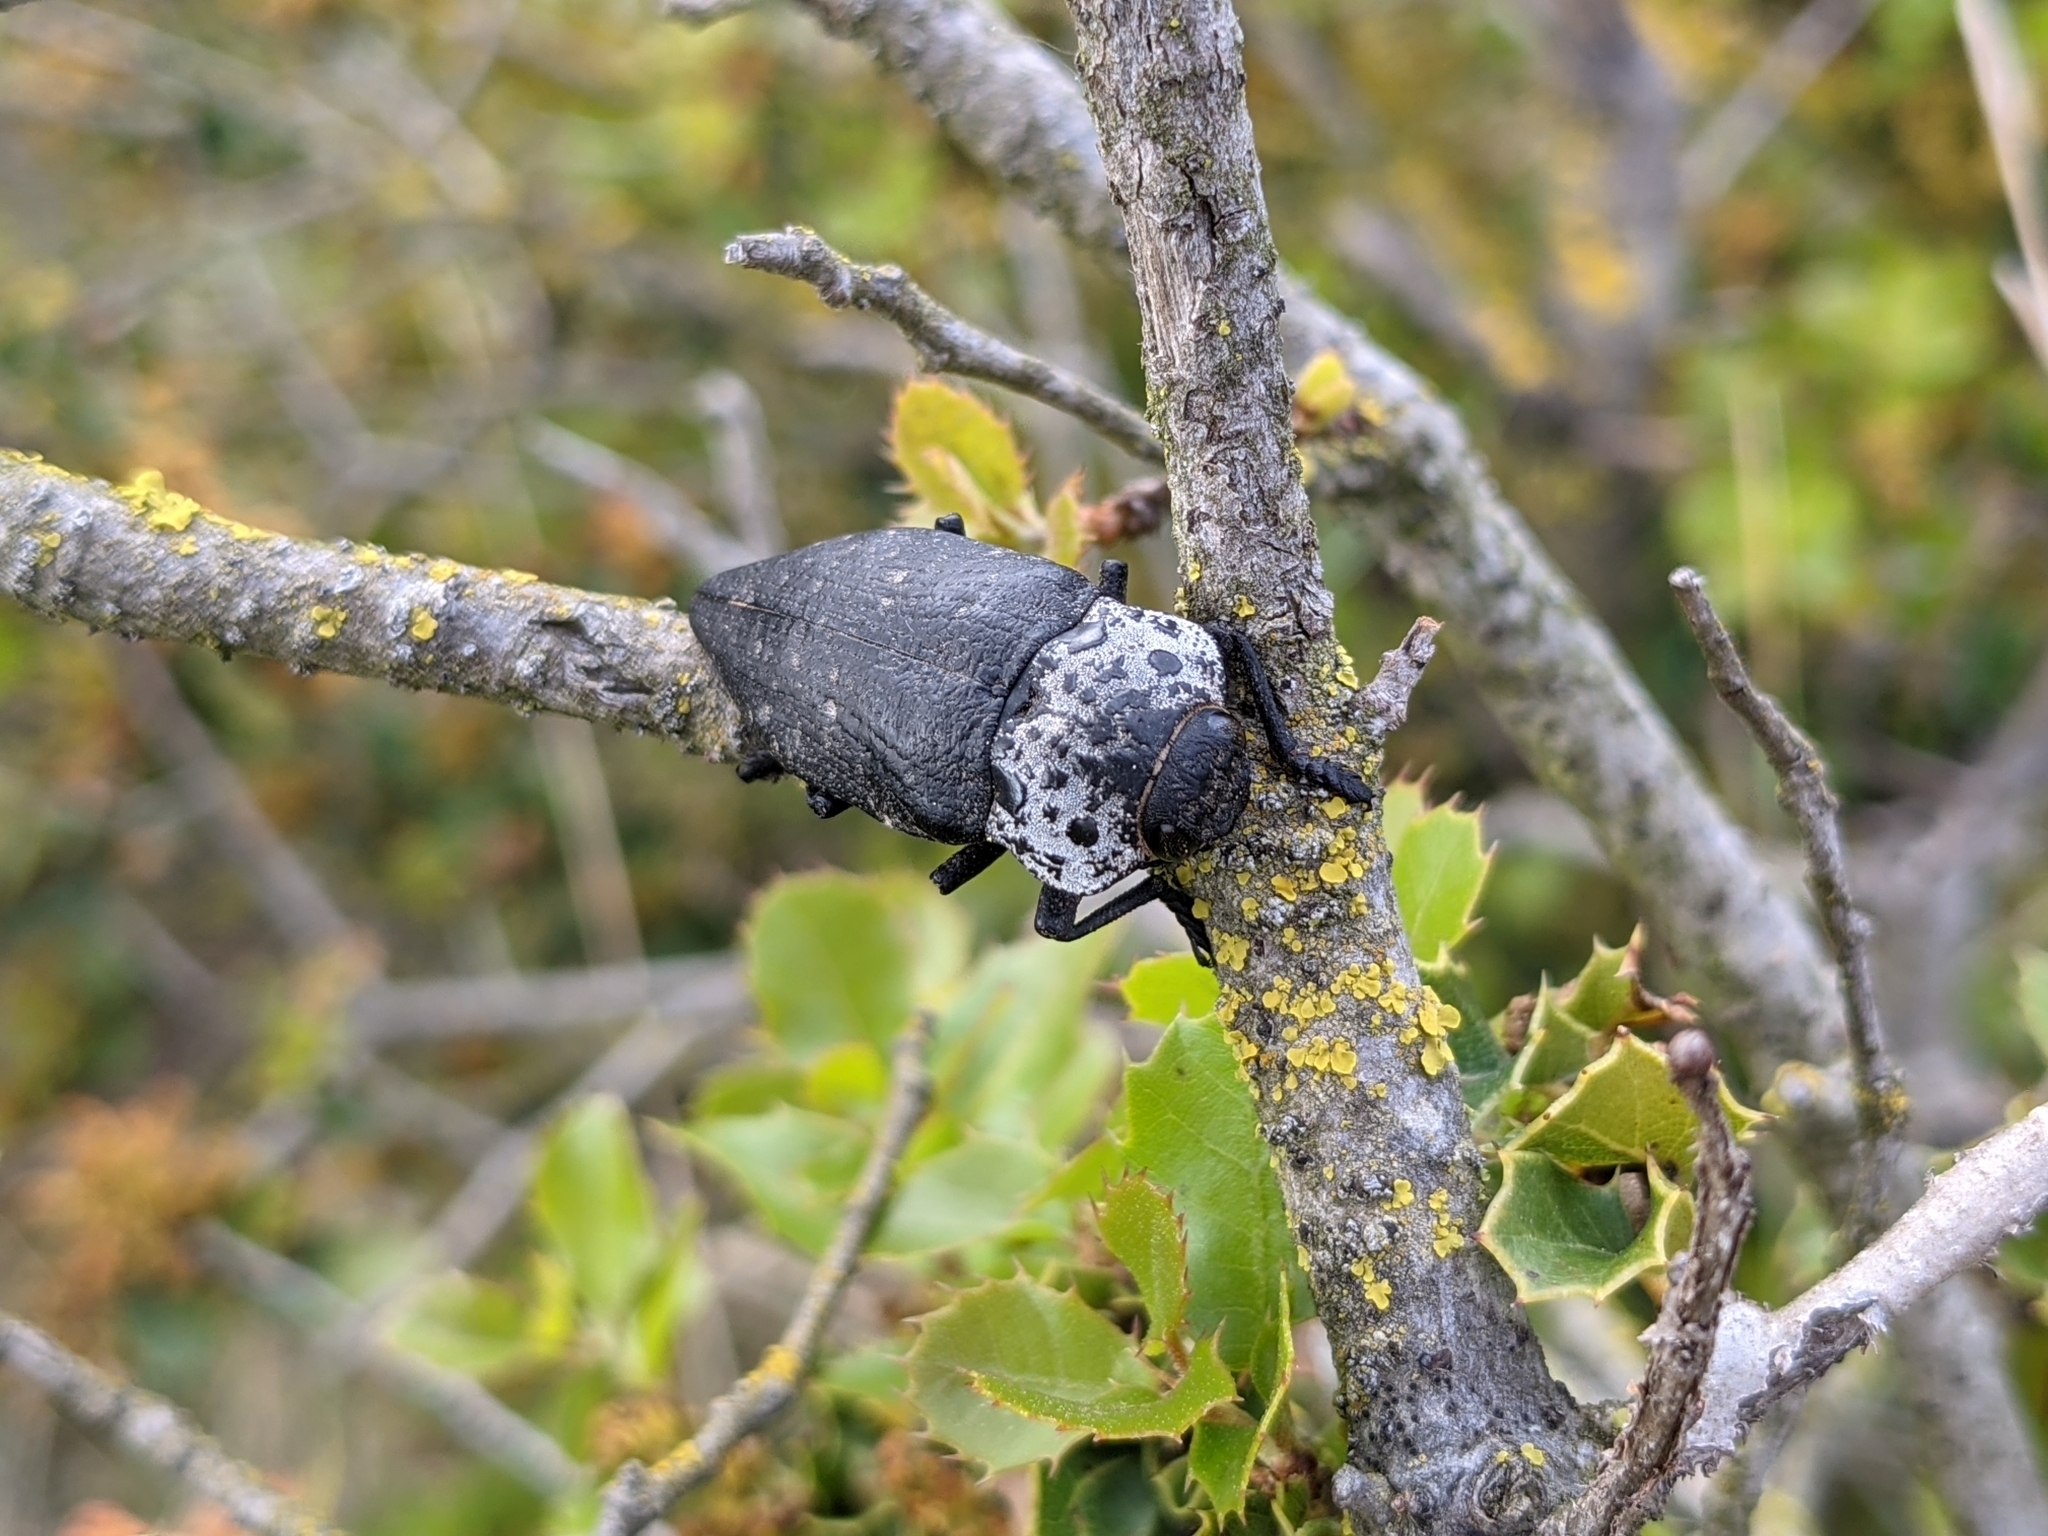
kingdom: Animalia
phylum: Arthropoda
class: Insecta
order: Coleoptera
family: Buprestidae
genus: Capnodis
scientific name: Capnodis tenebrionis
